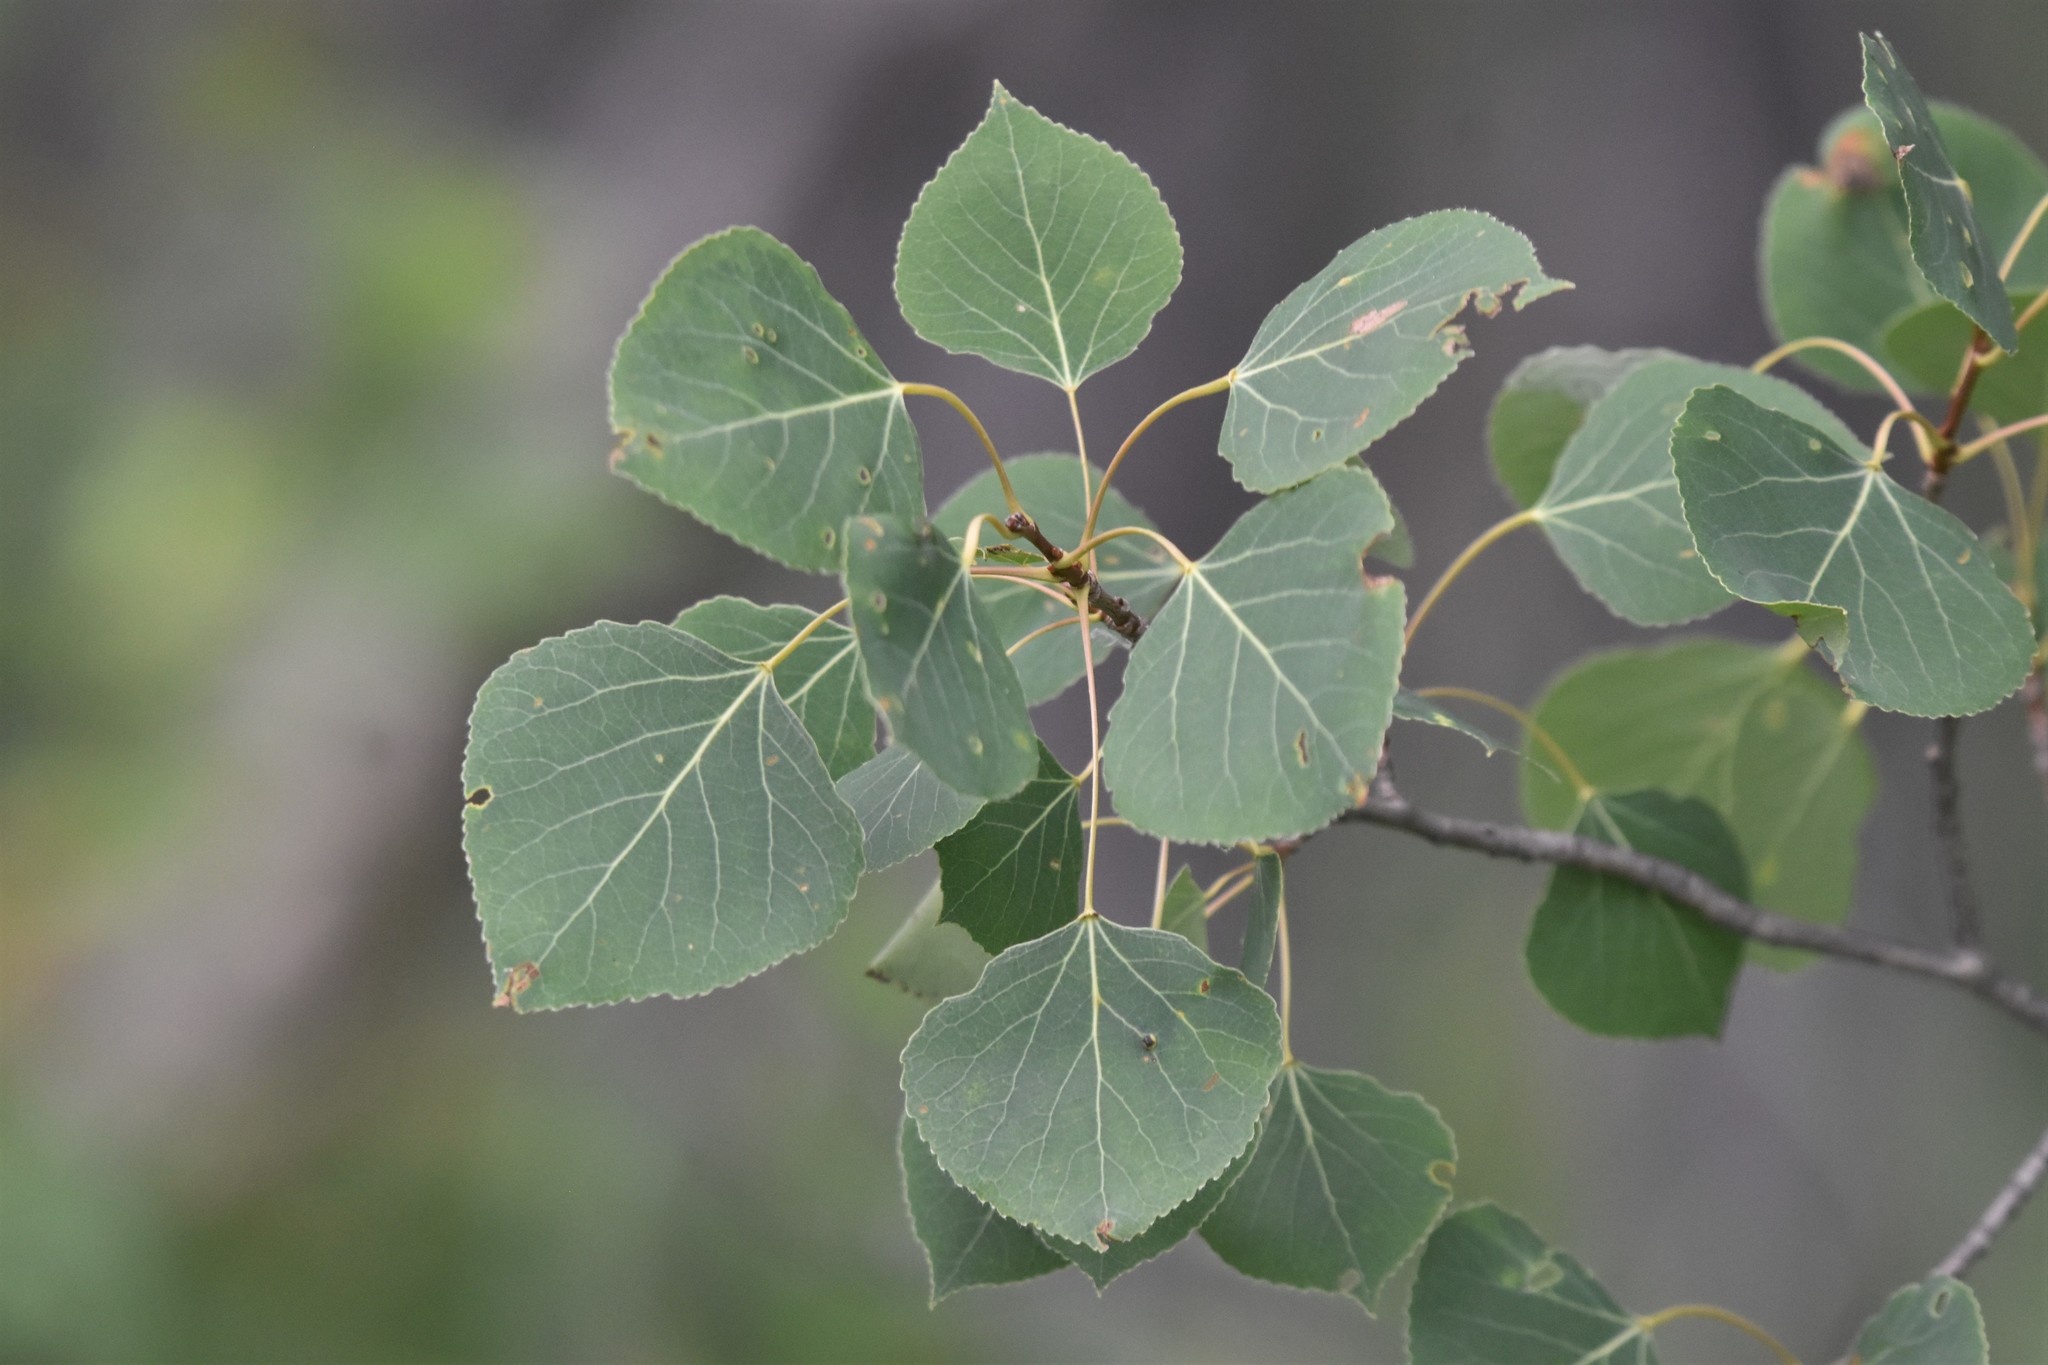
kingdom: Plantae
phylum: Tracheophyta
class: Magnoliopsida
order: Malpighiales
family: Salicaceae
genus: Populus
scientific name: Populus tremuloides
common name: Quaking aspen
